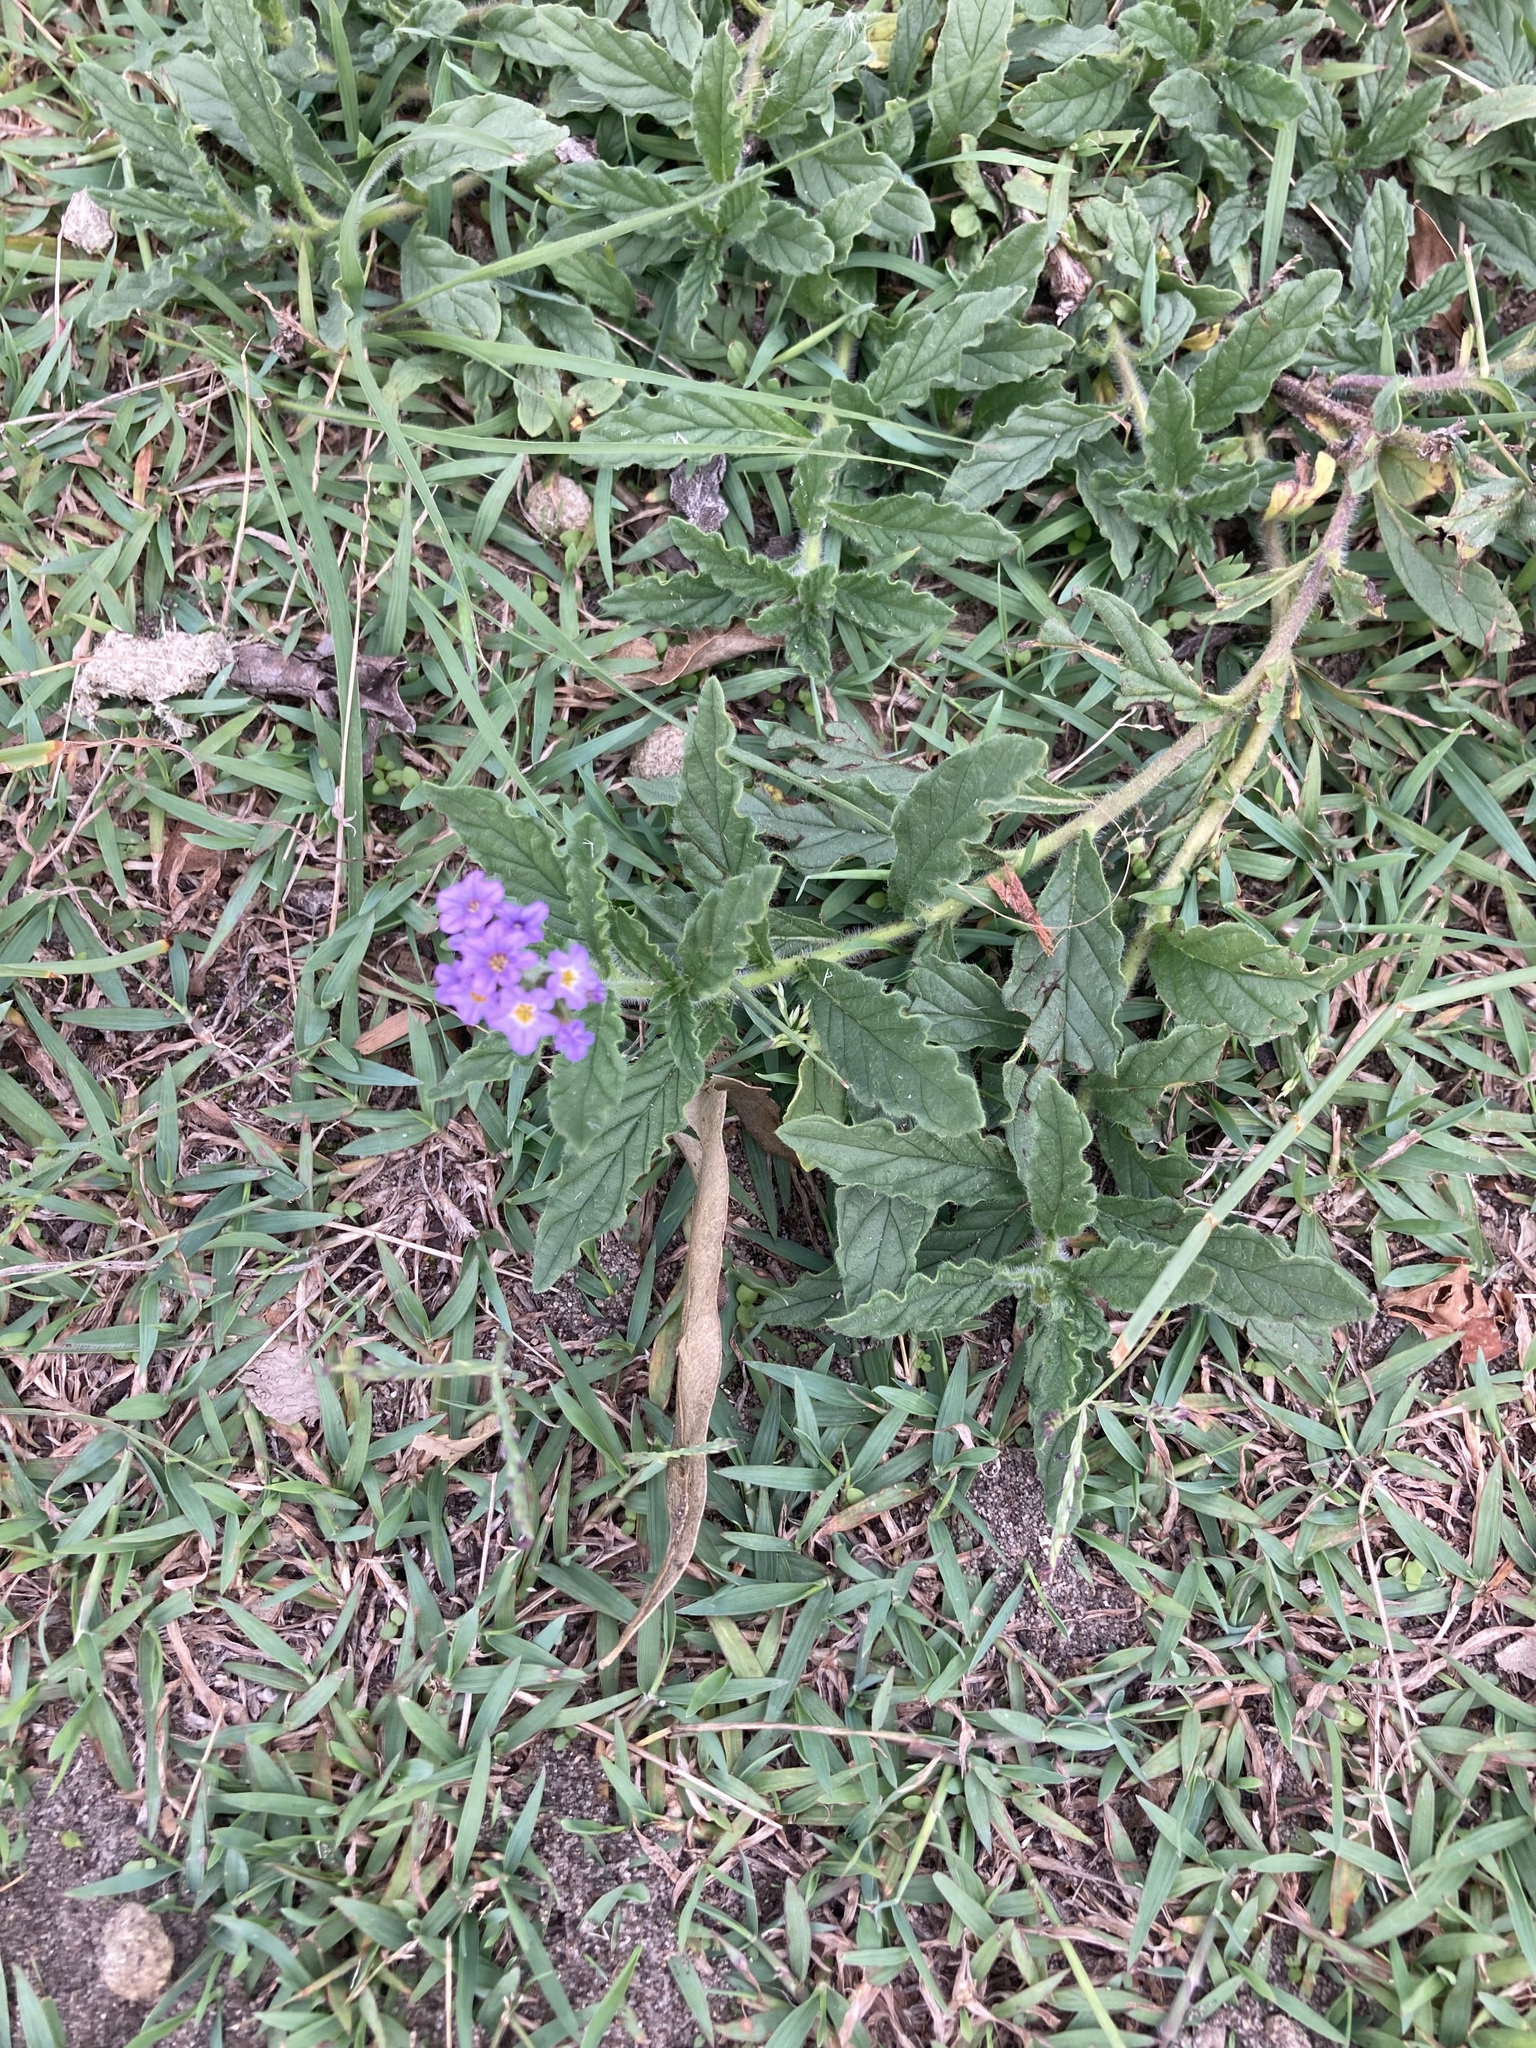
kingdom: Plantae
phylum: Tracheophyta
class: Magnoliopsida
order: Boraginales
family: Heliotropiaceae
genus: Heliotropium
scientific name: Heliotropium amplexicaule
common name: Clasping heliotrope
